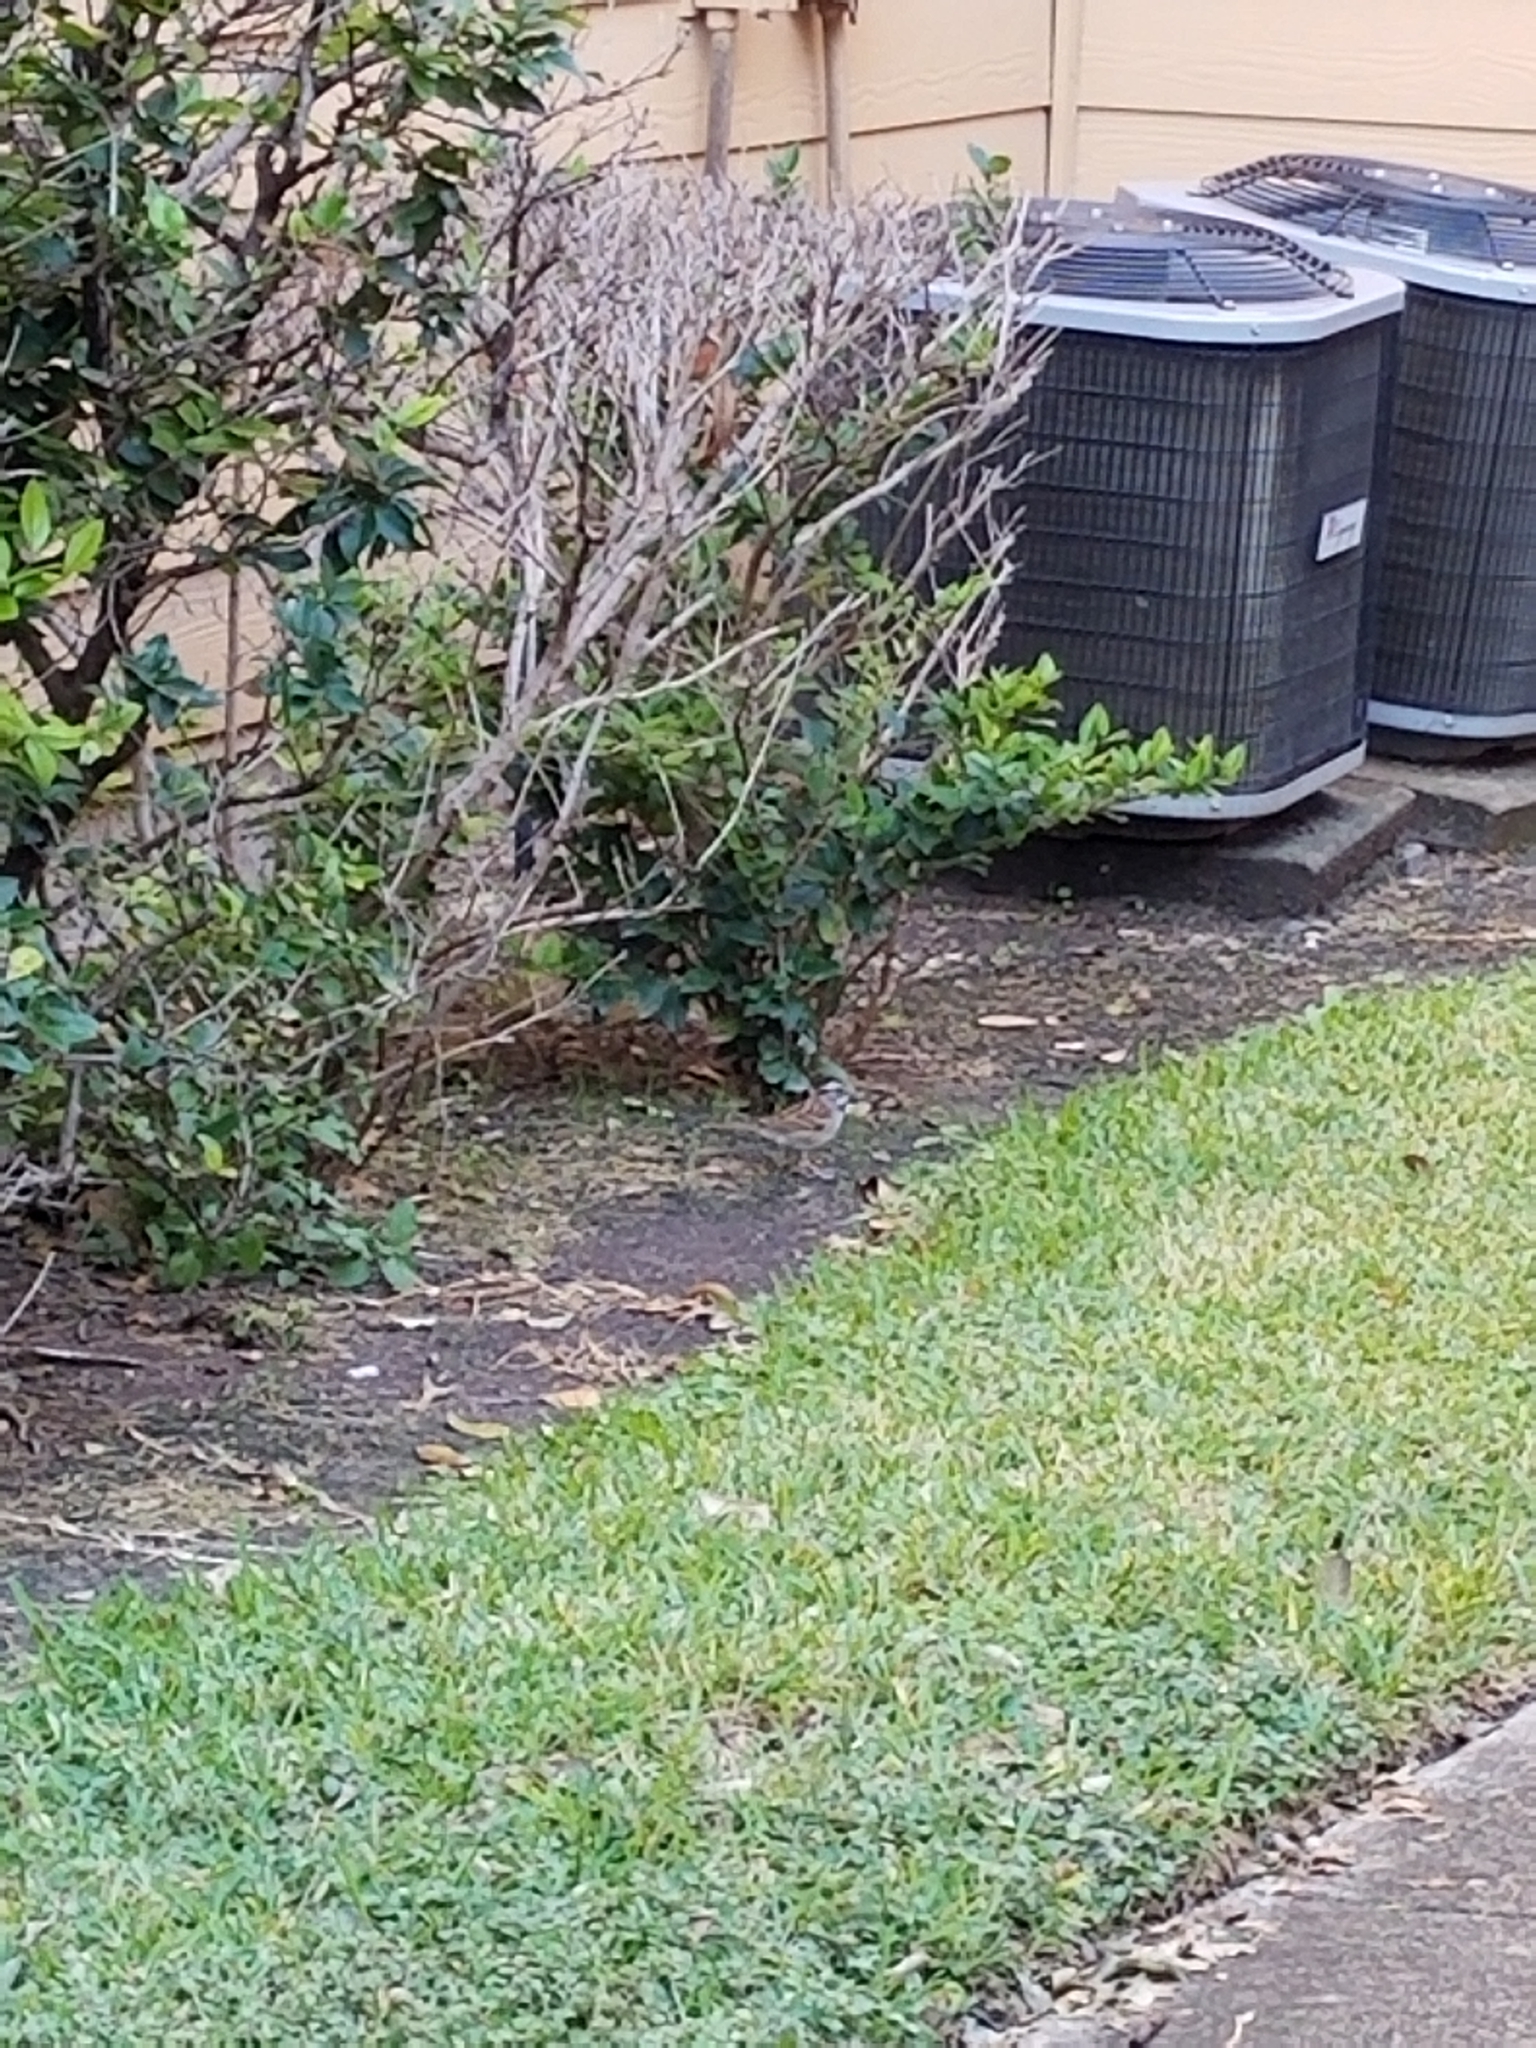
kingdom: Animalia
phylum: Chordata
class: Aves
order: Passeriformes
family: Passerellidae
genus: Zonotrichia
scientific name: Zonotrichia albicollis
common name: White-throated sparrow
